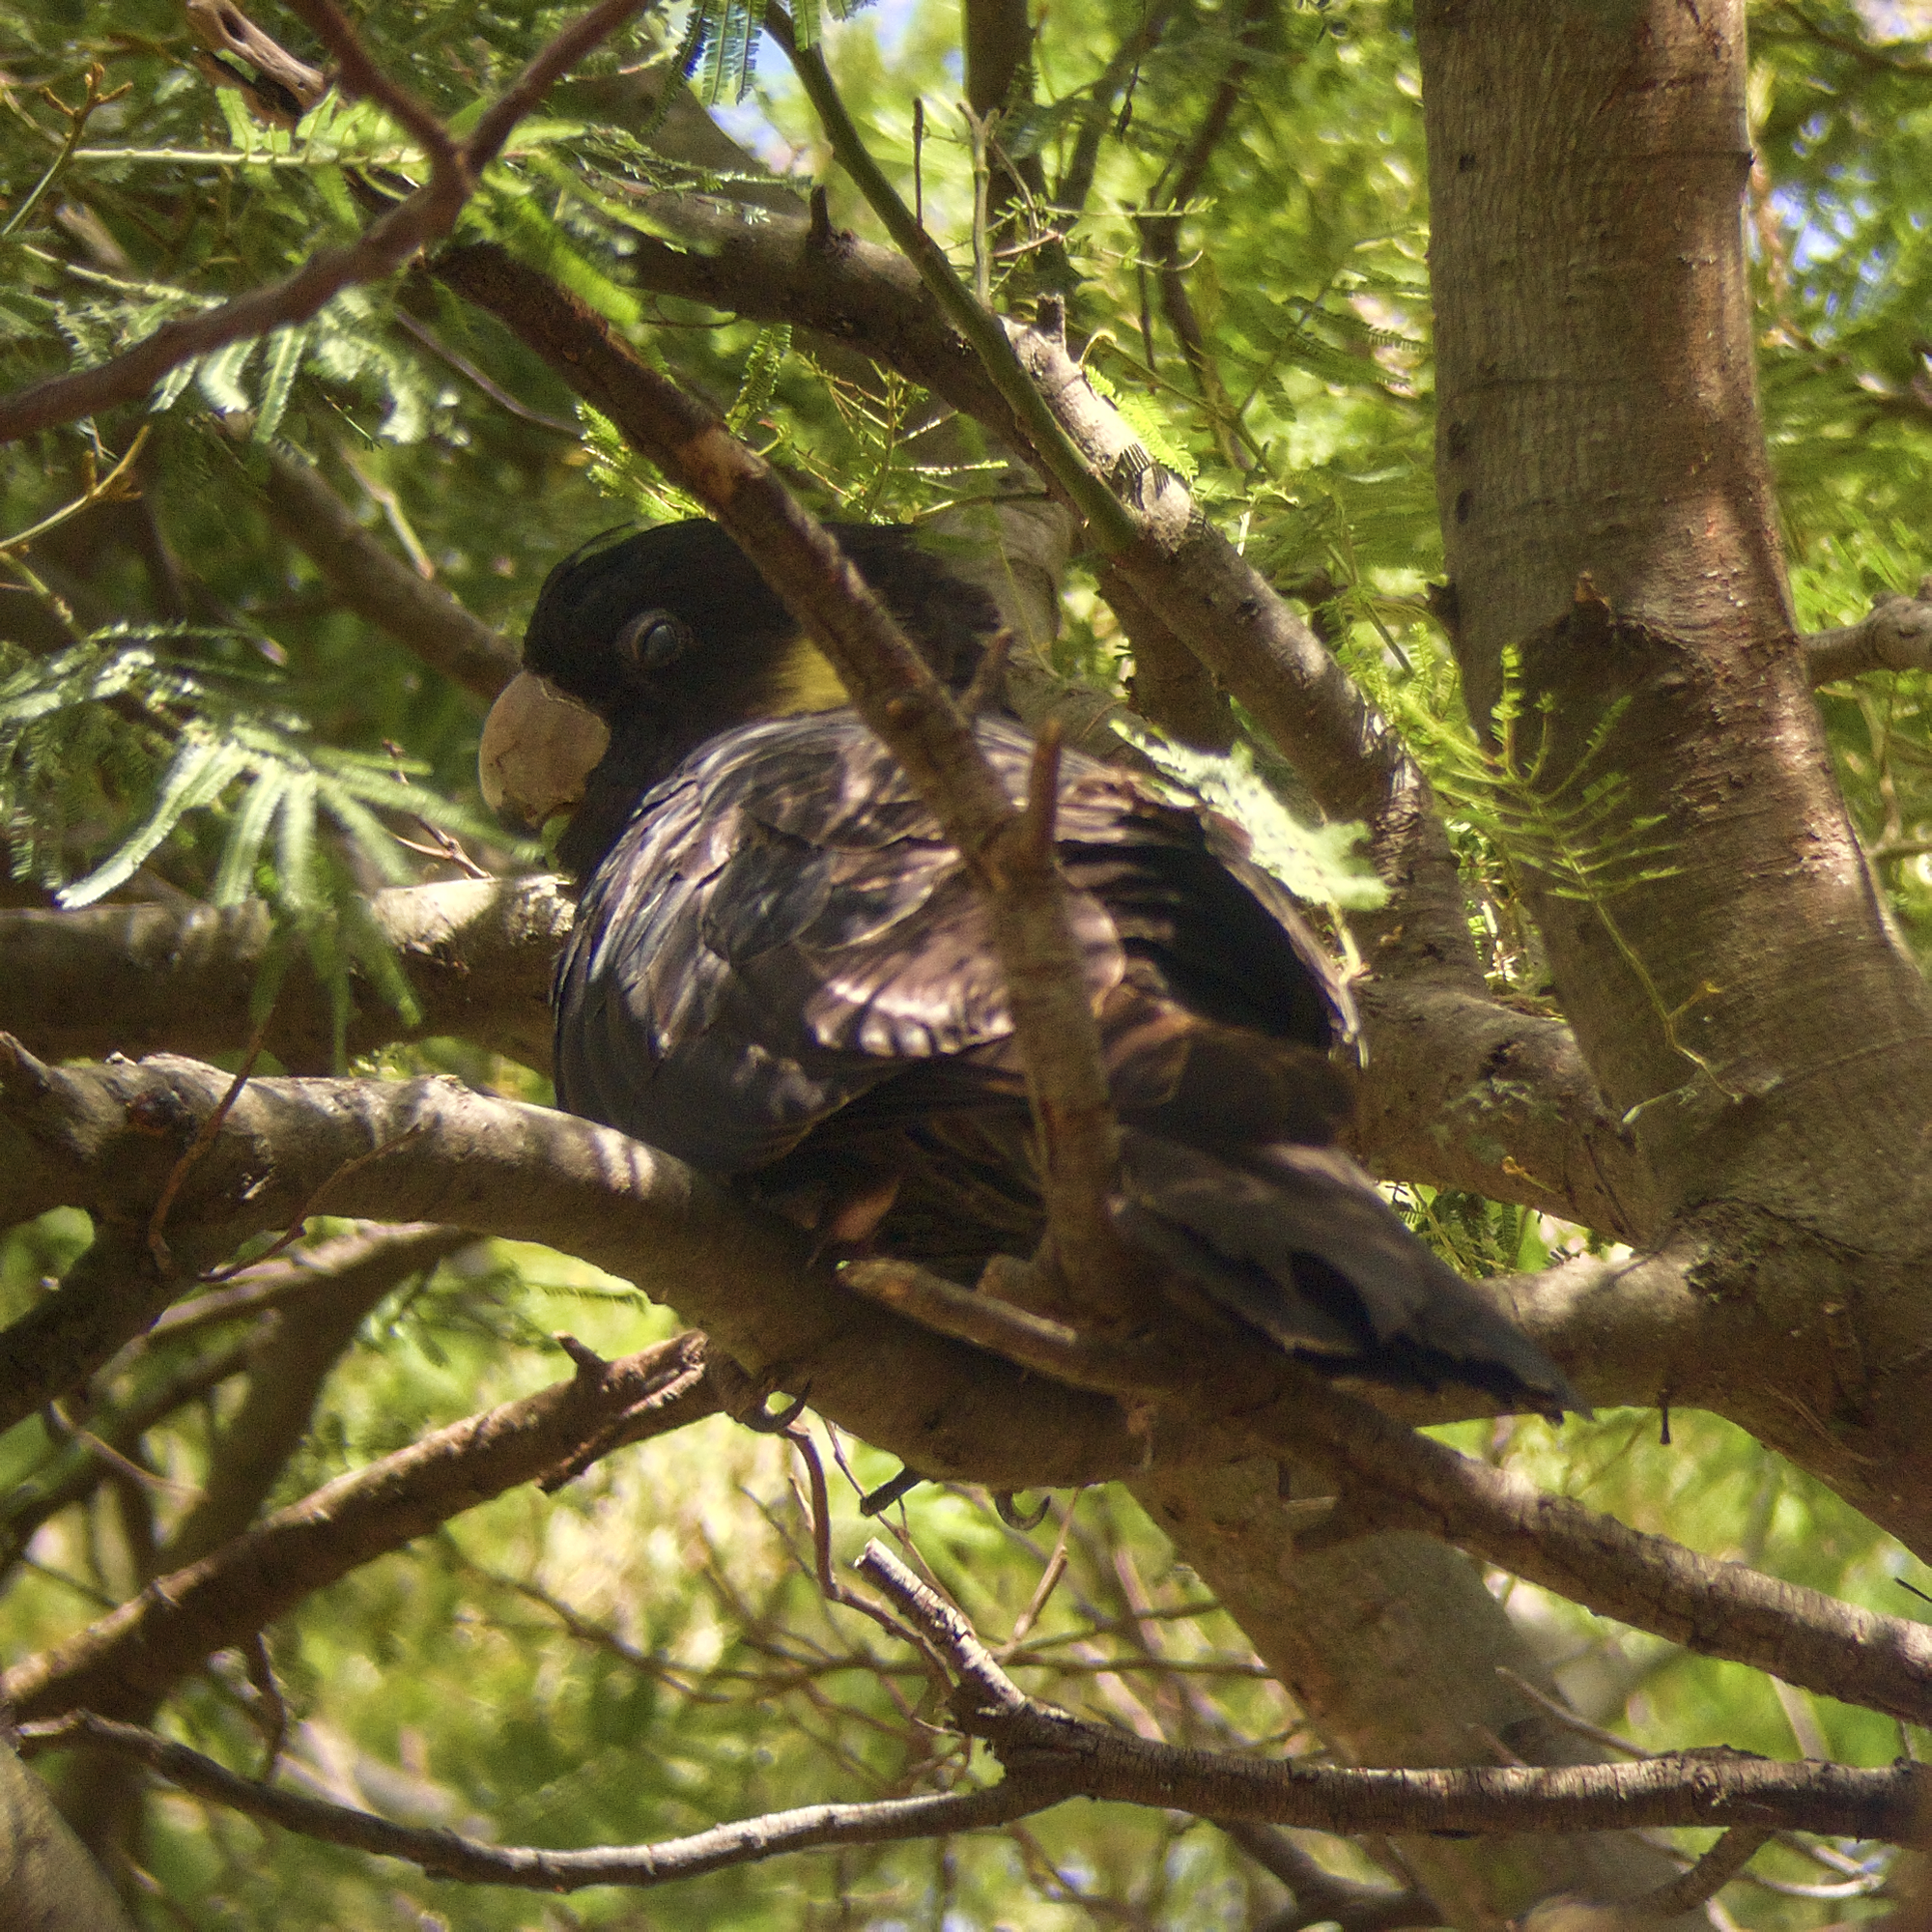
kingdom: Animalia
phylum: Chordata
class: Aves
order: Psittaciformes
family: Cacatuidae
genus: Zanda
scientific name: Zanda funerea
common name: Yellow-tailed black-cockatoo
